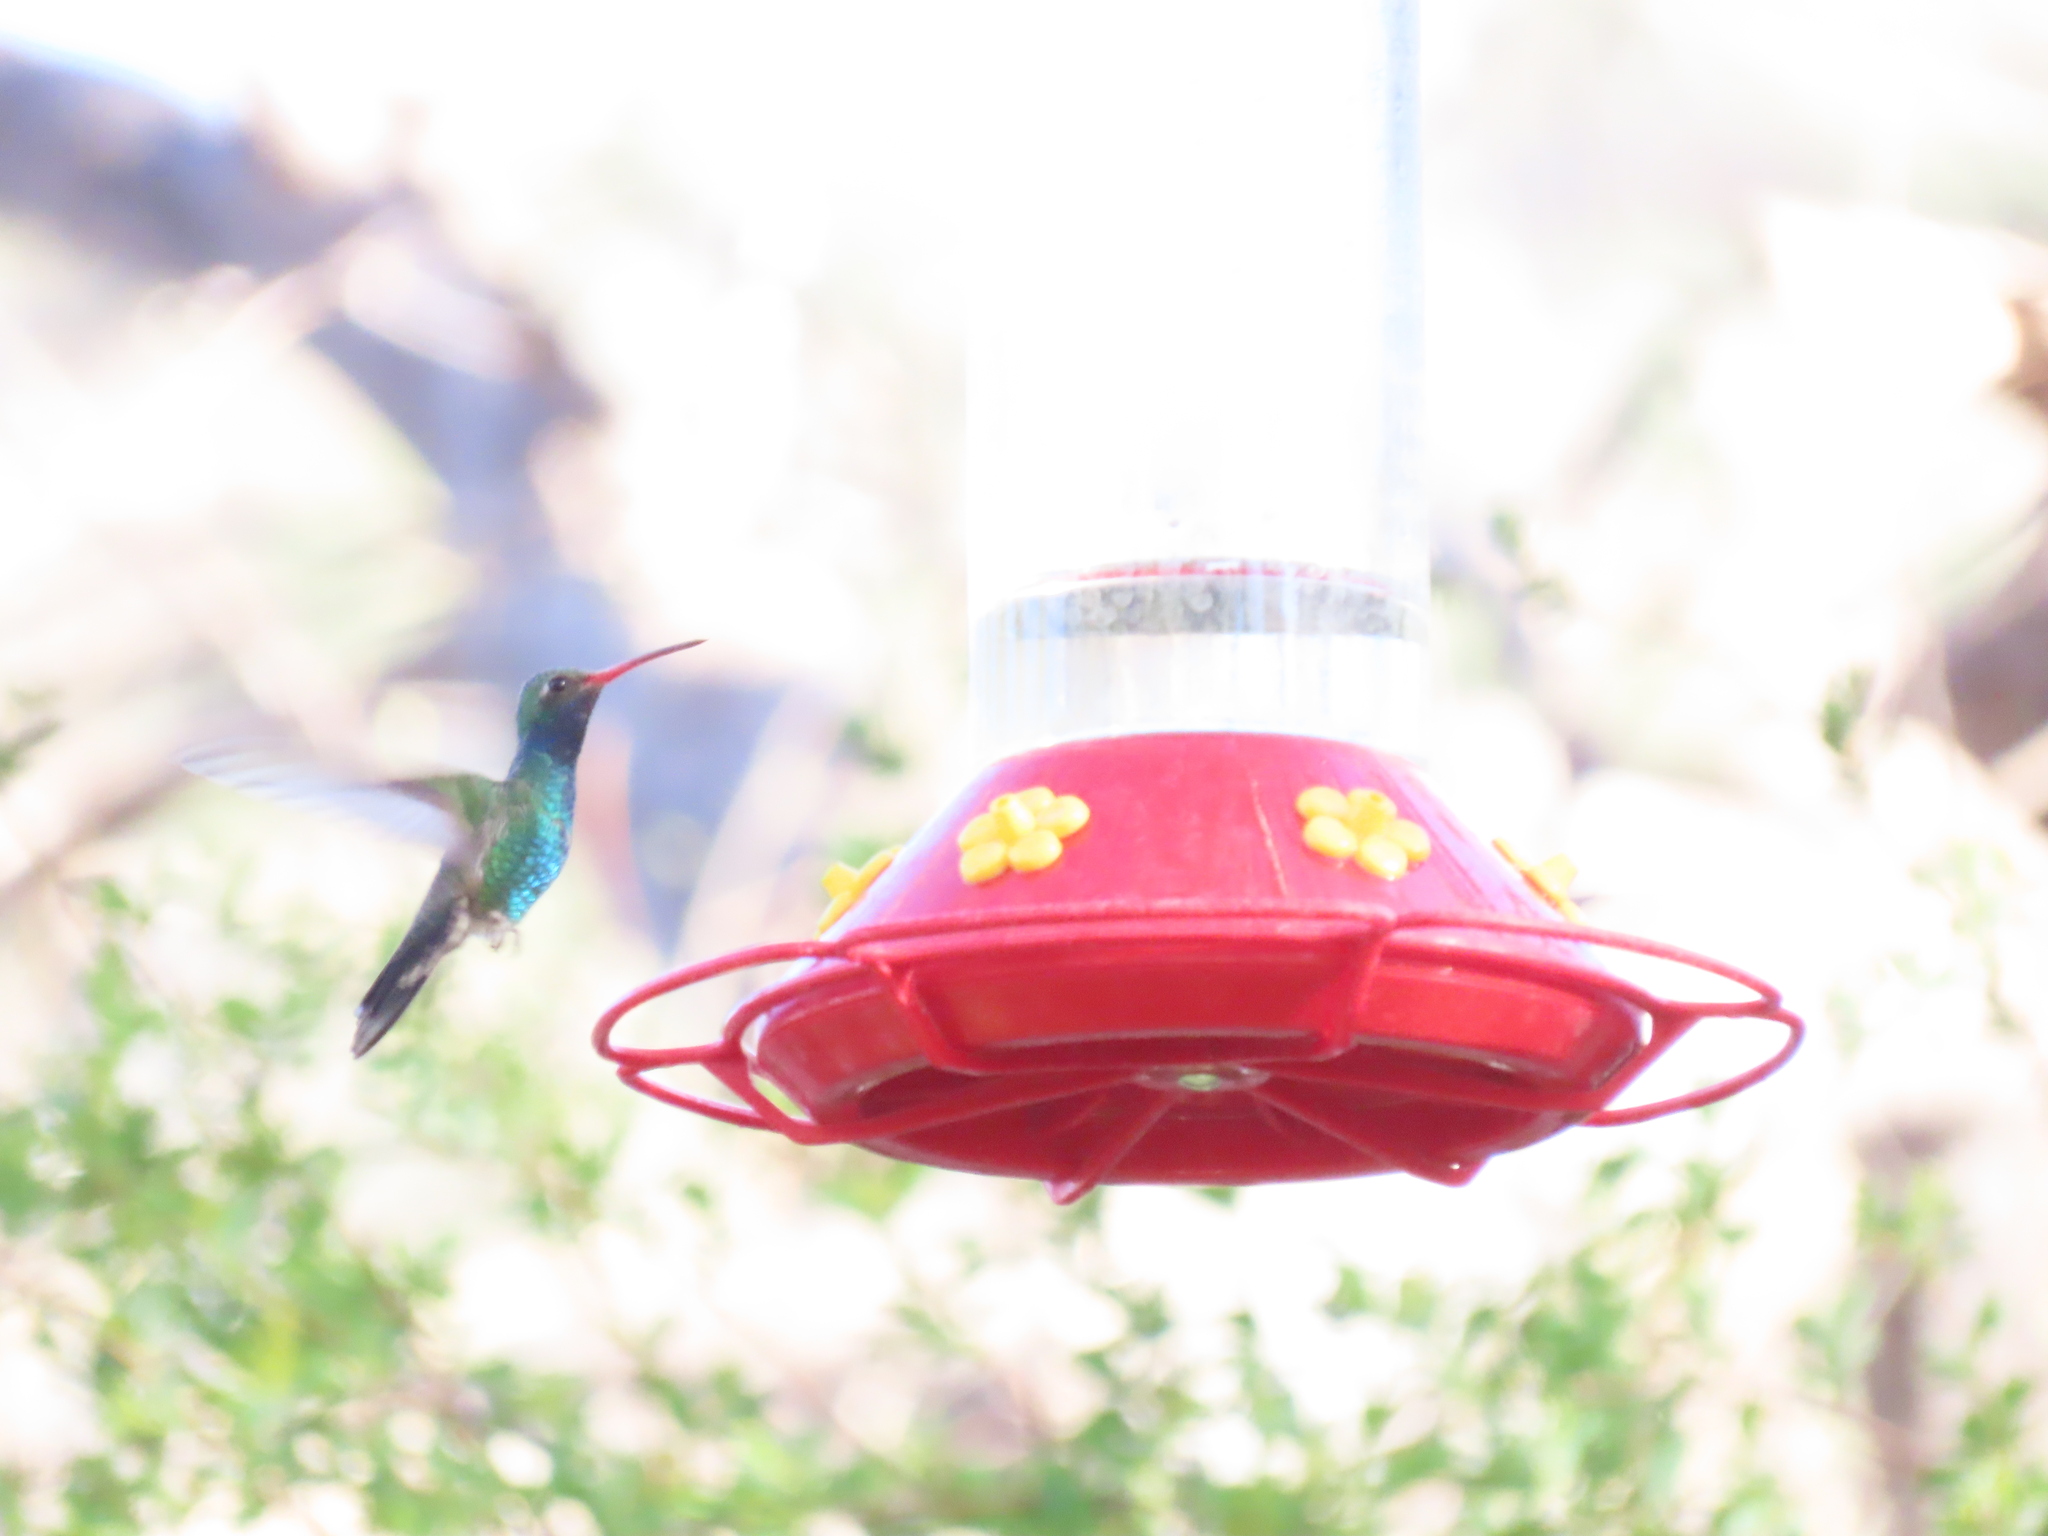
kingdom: Animalia
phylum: Chordata
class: Aves
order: Apodiformes
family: Trochilidae
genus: Cynanthus
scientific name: Cynanthus latirostris
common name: Broad-billed hummingbird
